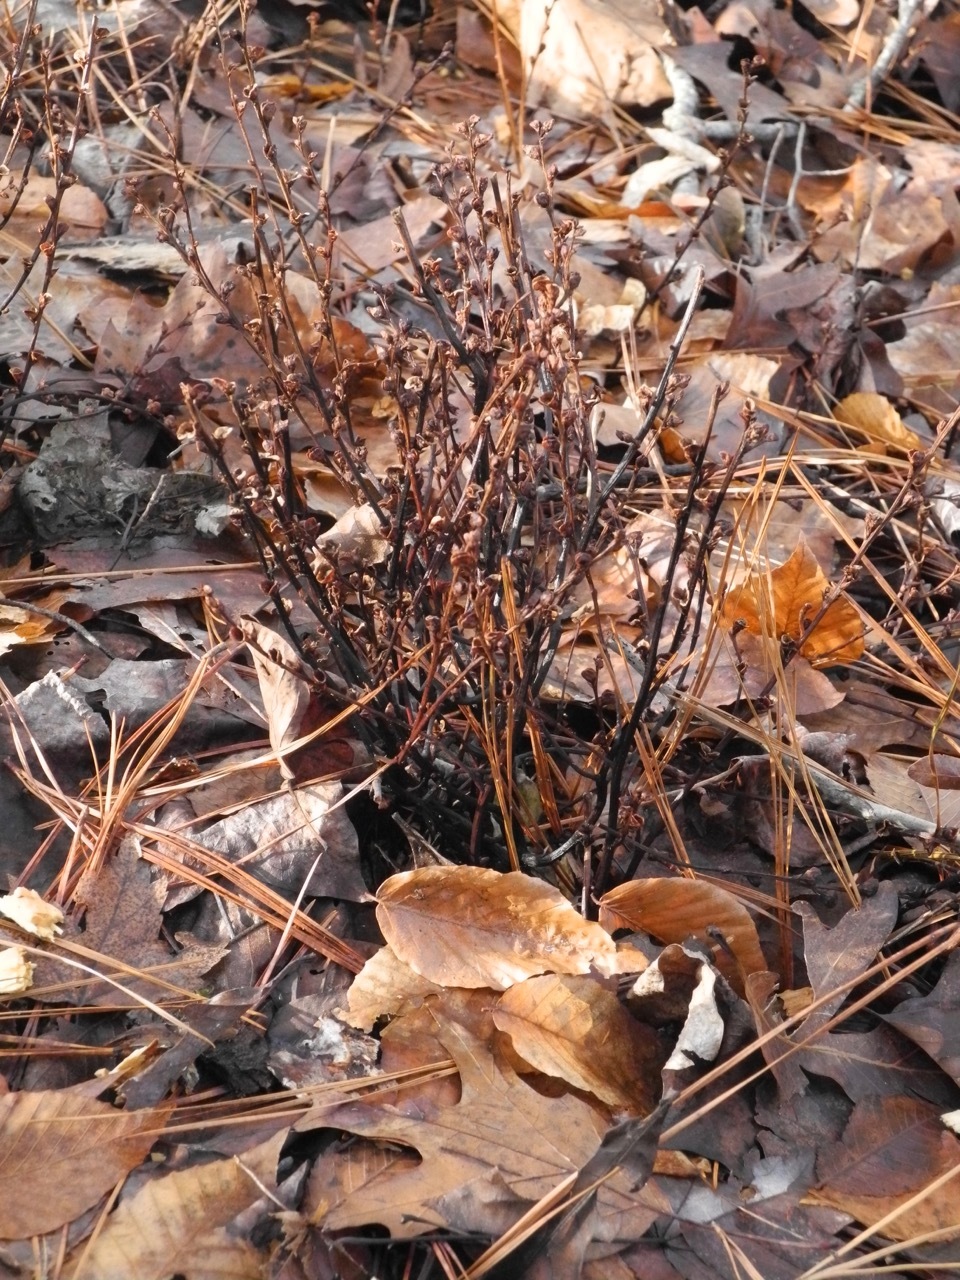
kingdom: Plantae
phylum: Tracheophyta
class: Magnoliopsida
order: Lamiales
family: Orobanchaceae
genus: Epifagus
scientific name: Epifagus virginiana
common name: Beechdrops
